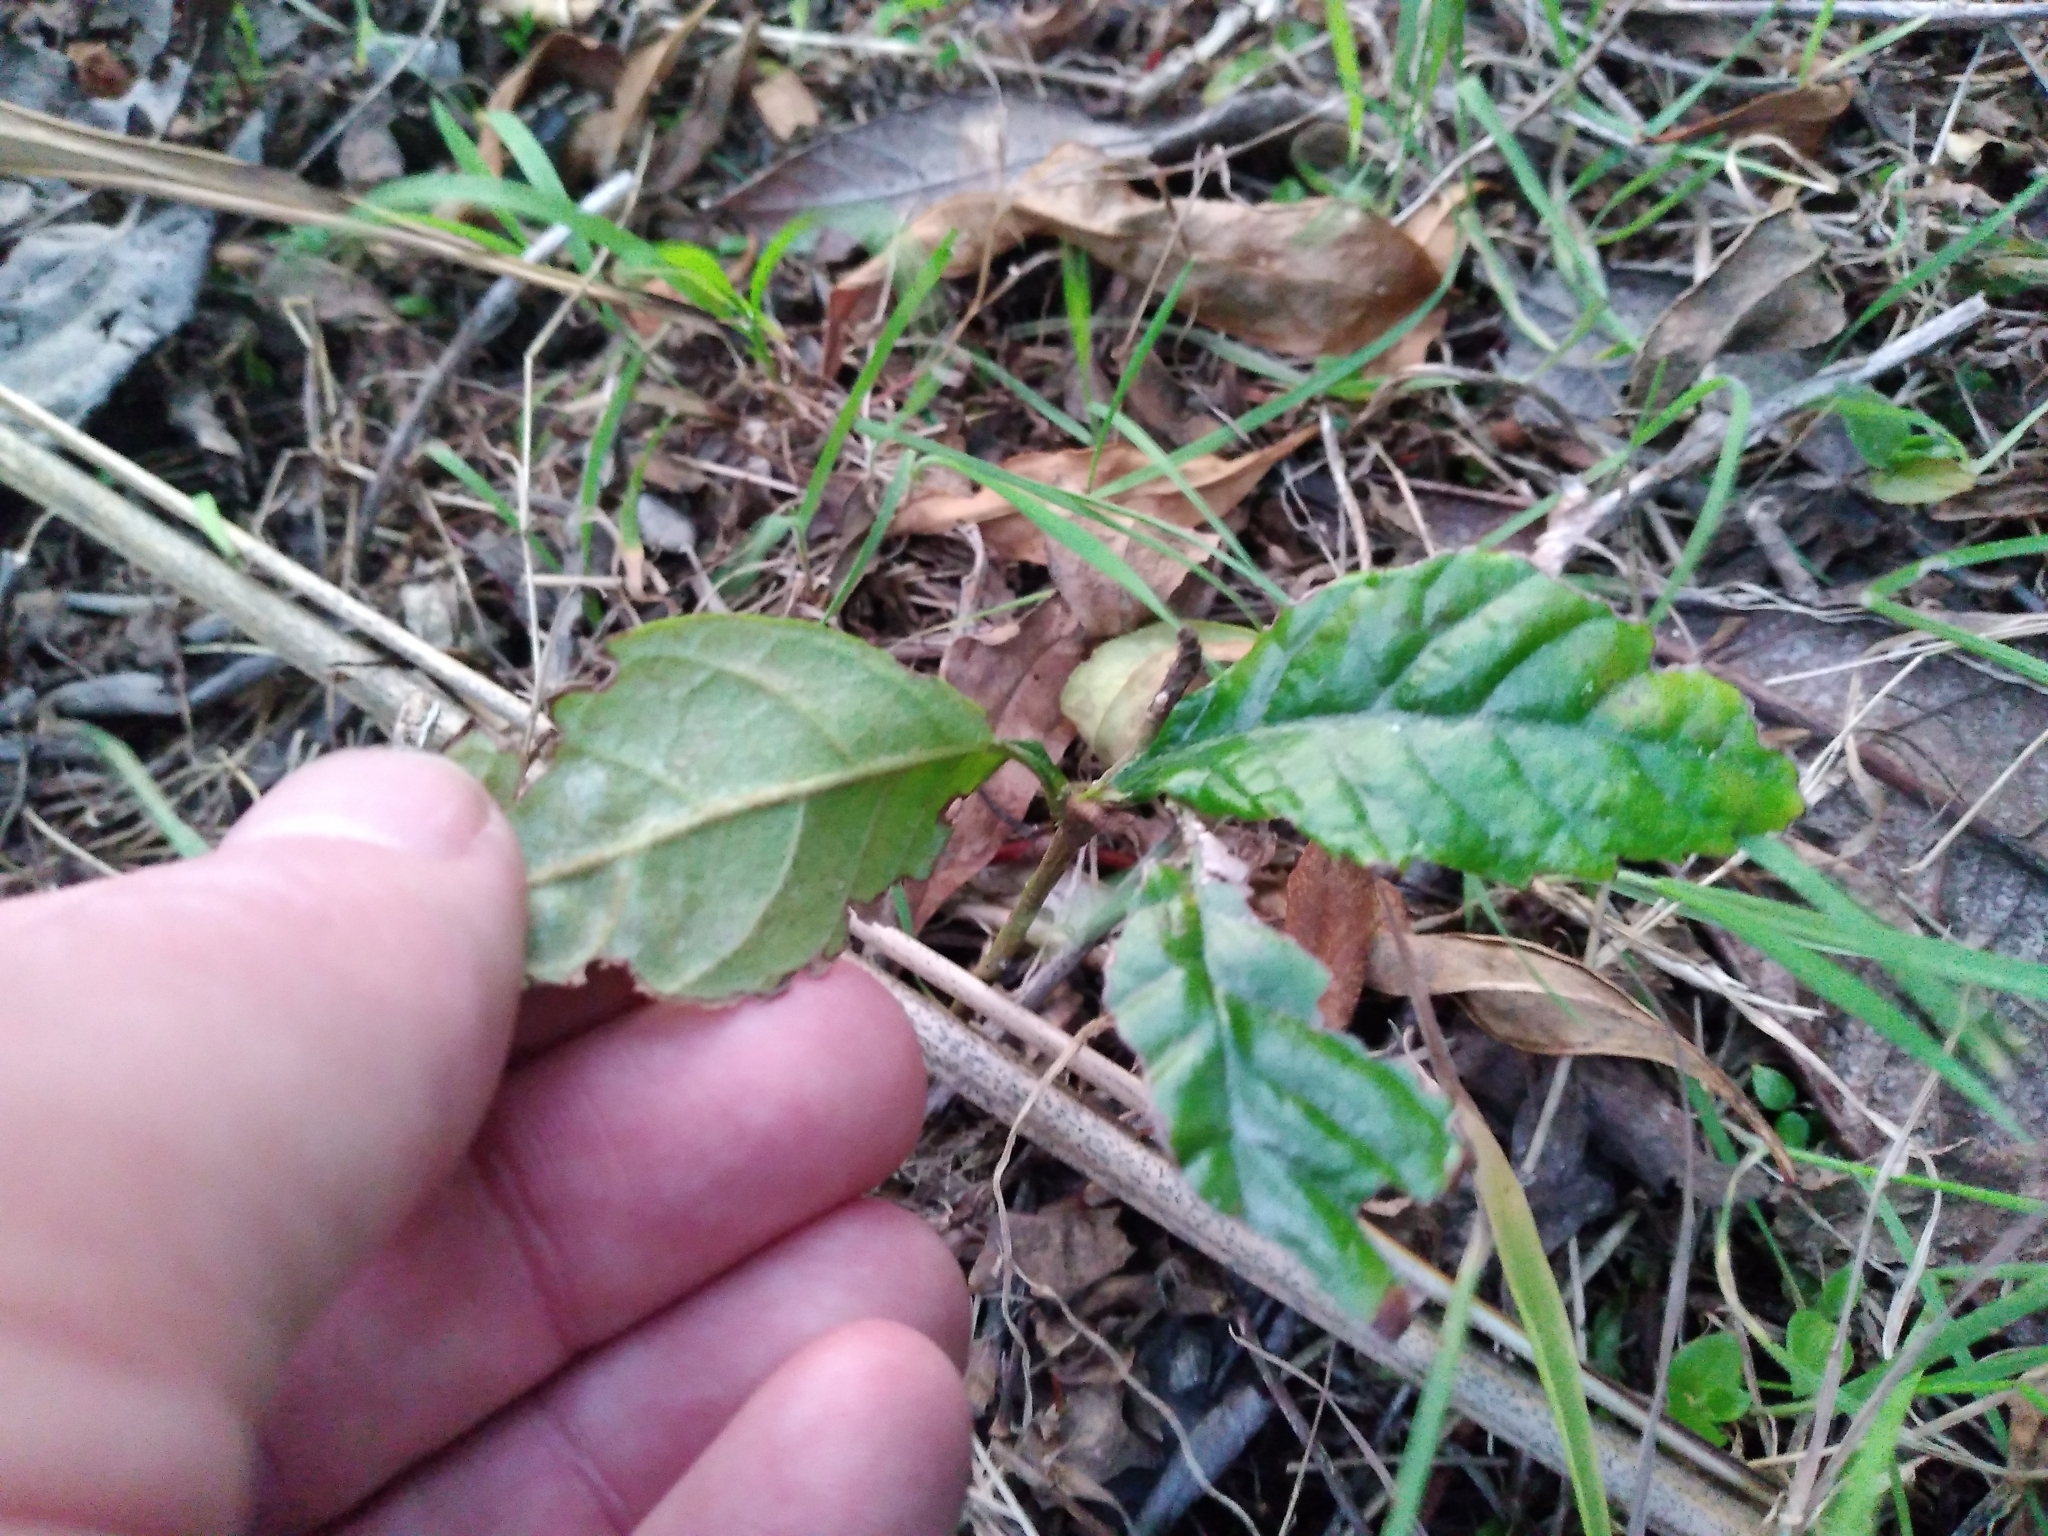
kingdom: Plantae
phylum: Tracheophyta
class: Magnoliopsida
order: Rosales
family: Rosaceae
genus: Rhaphiolepis
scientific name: Rhaphiolepis bibas
